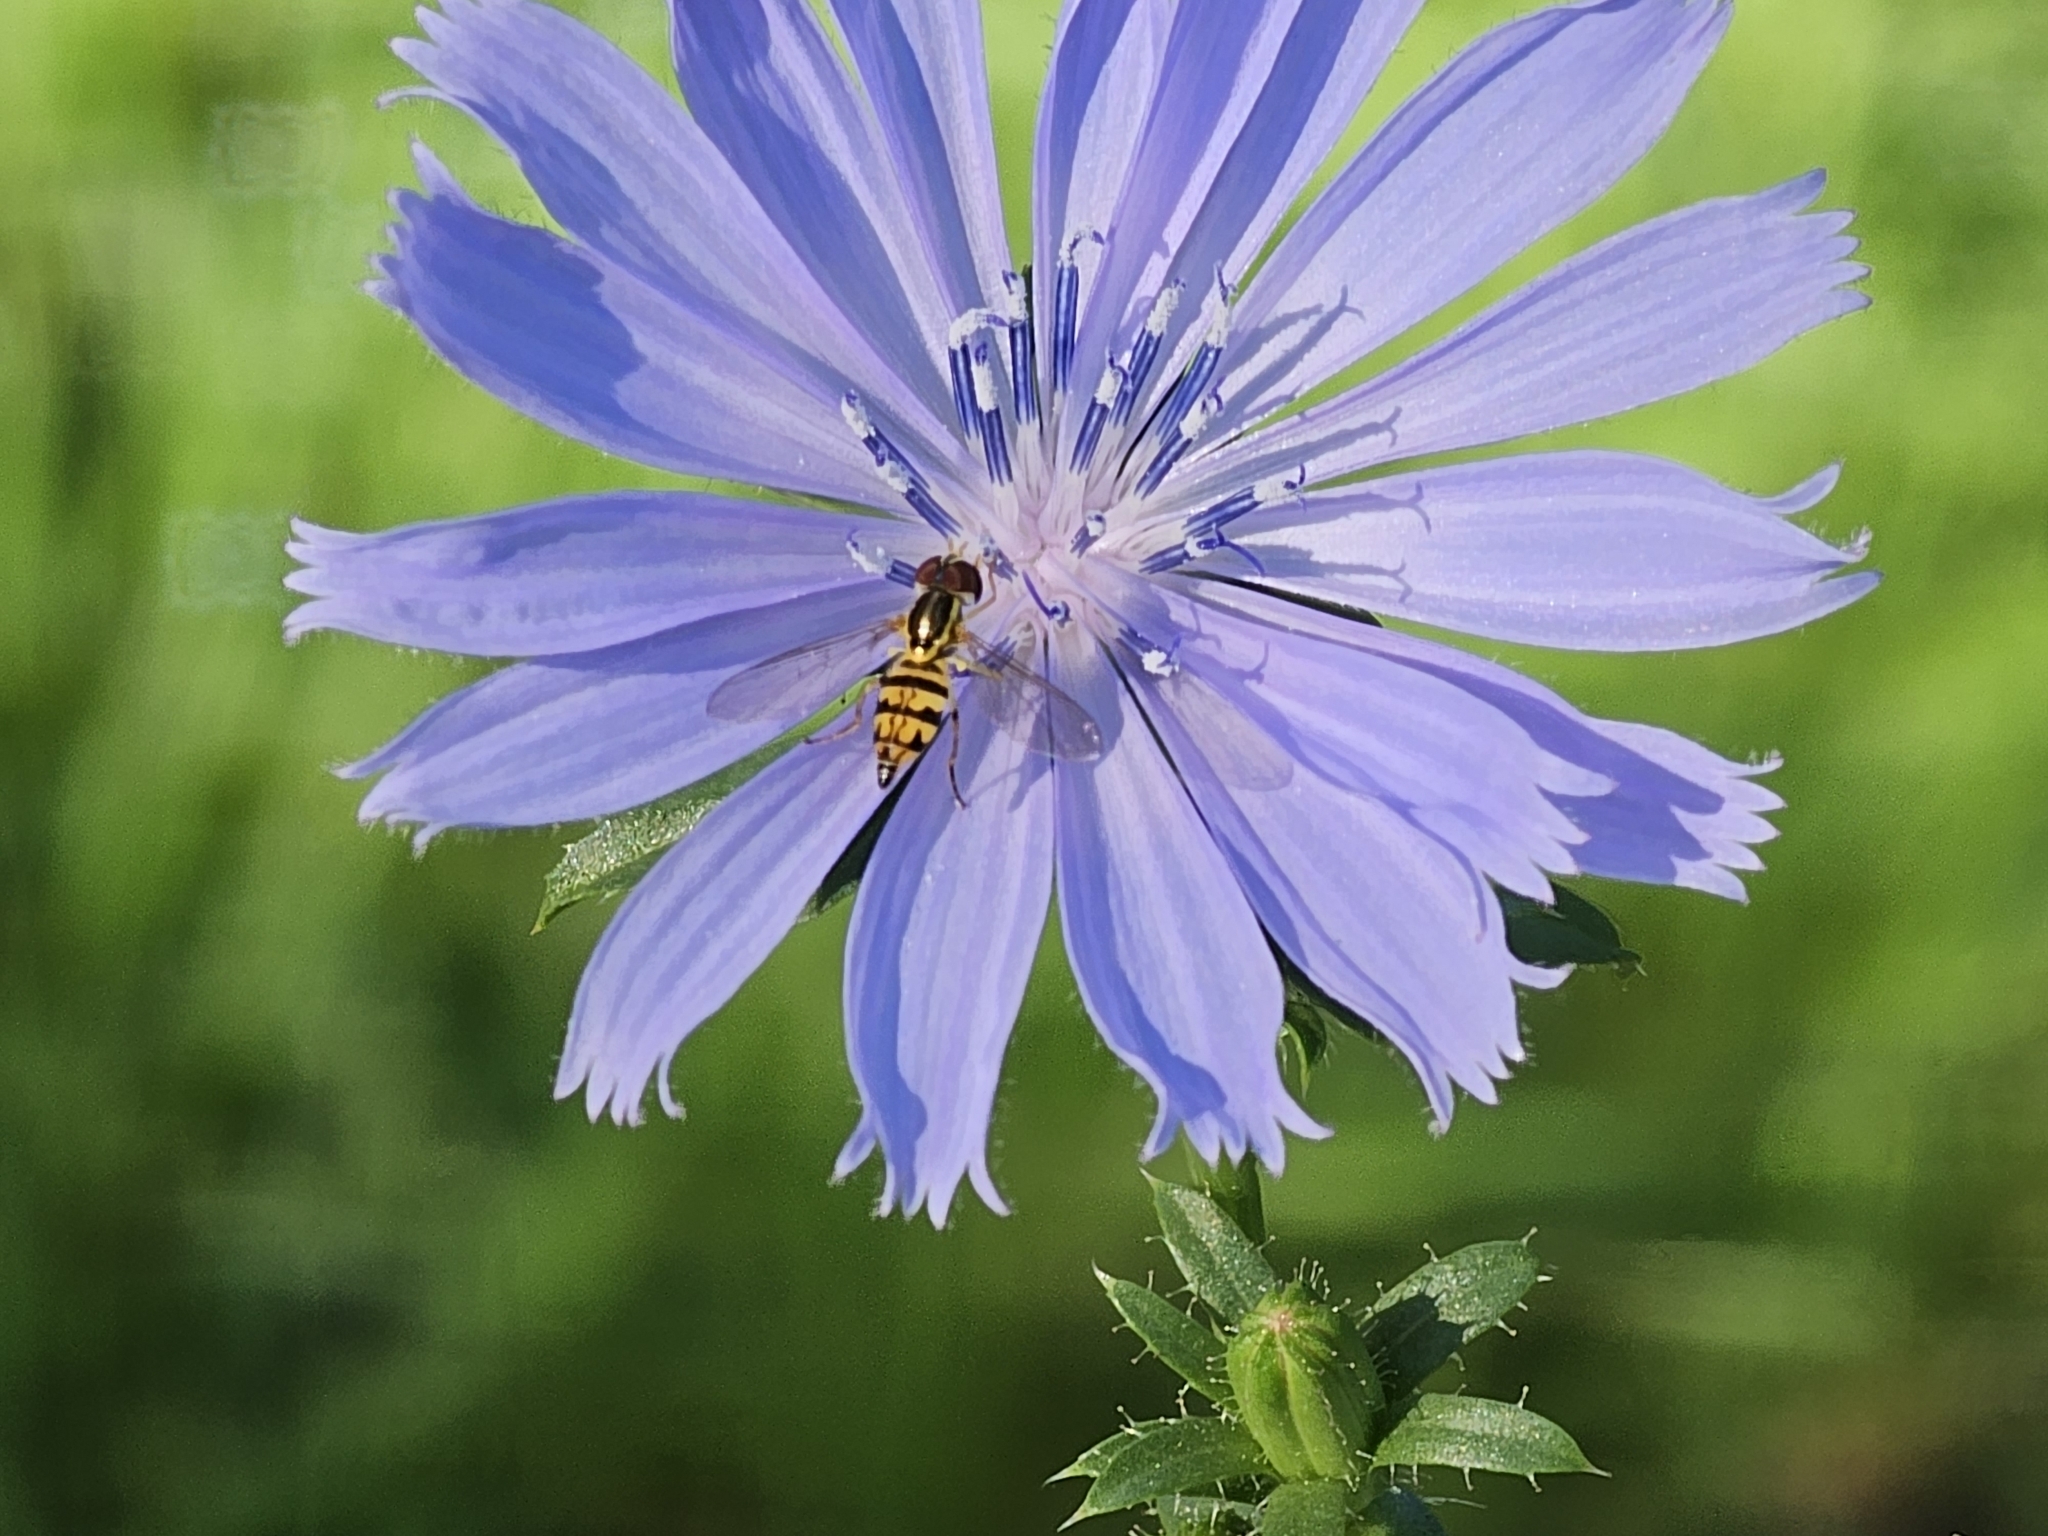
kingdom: Animalia
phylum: Arthropoda
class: Insecta
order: Diptera
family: Syrphidae
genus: Toxomerus
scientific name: Toxomerus geminatus
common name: Eastern calligrapher
